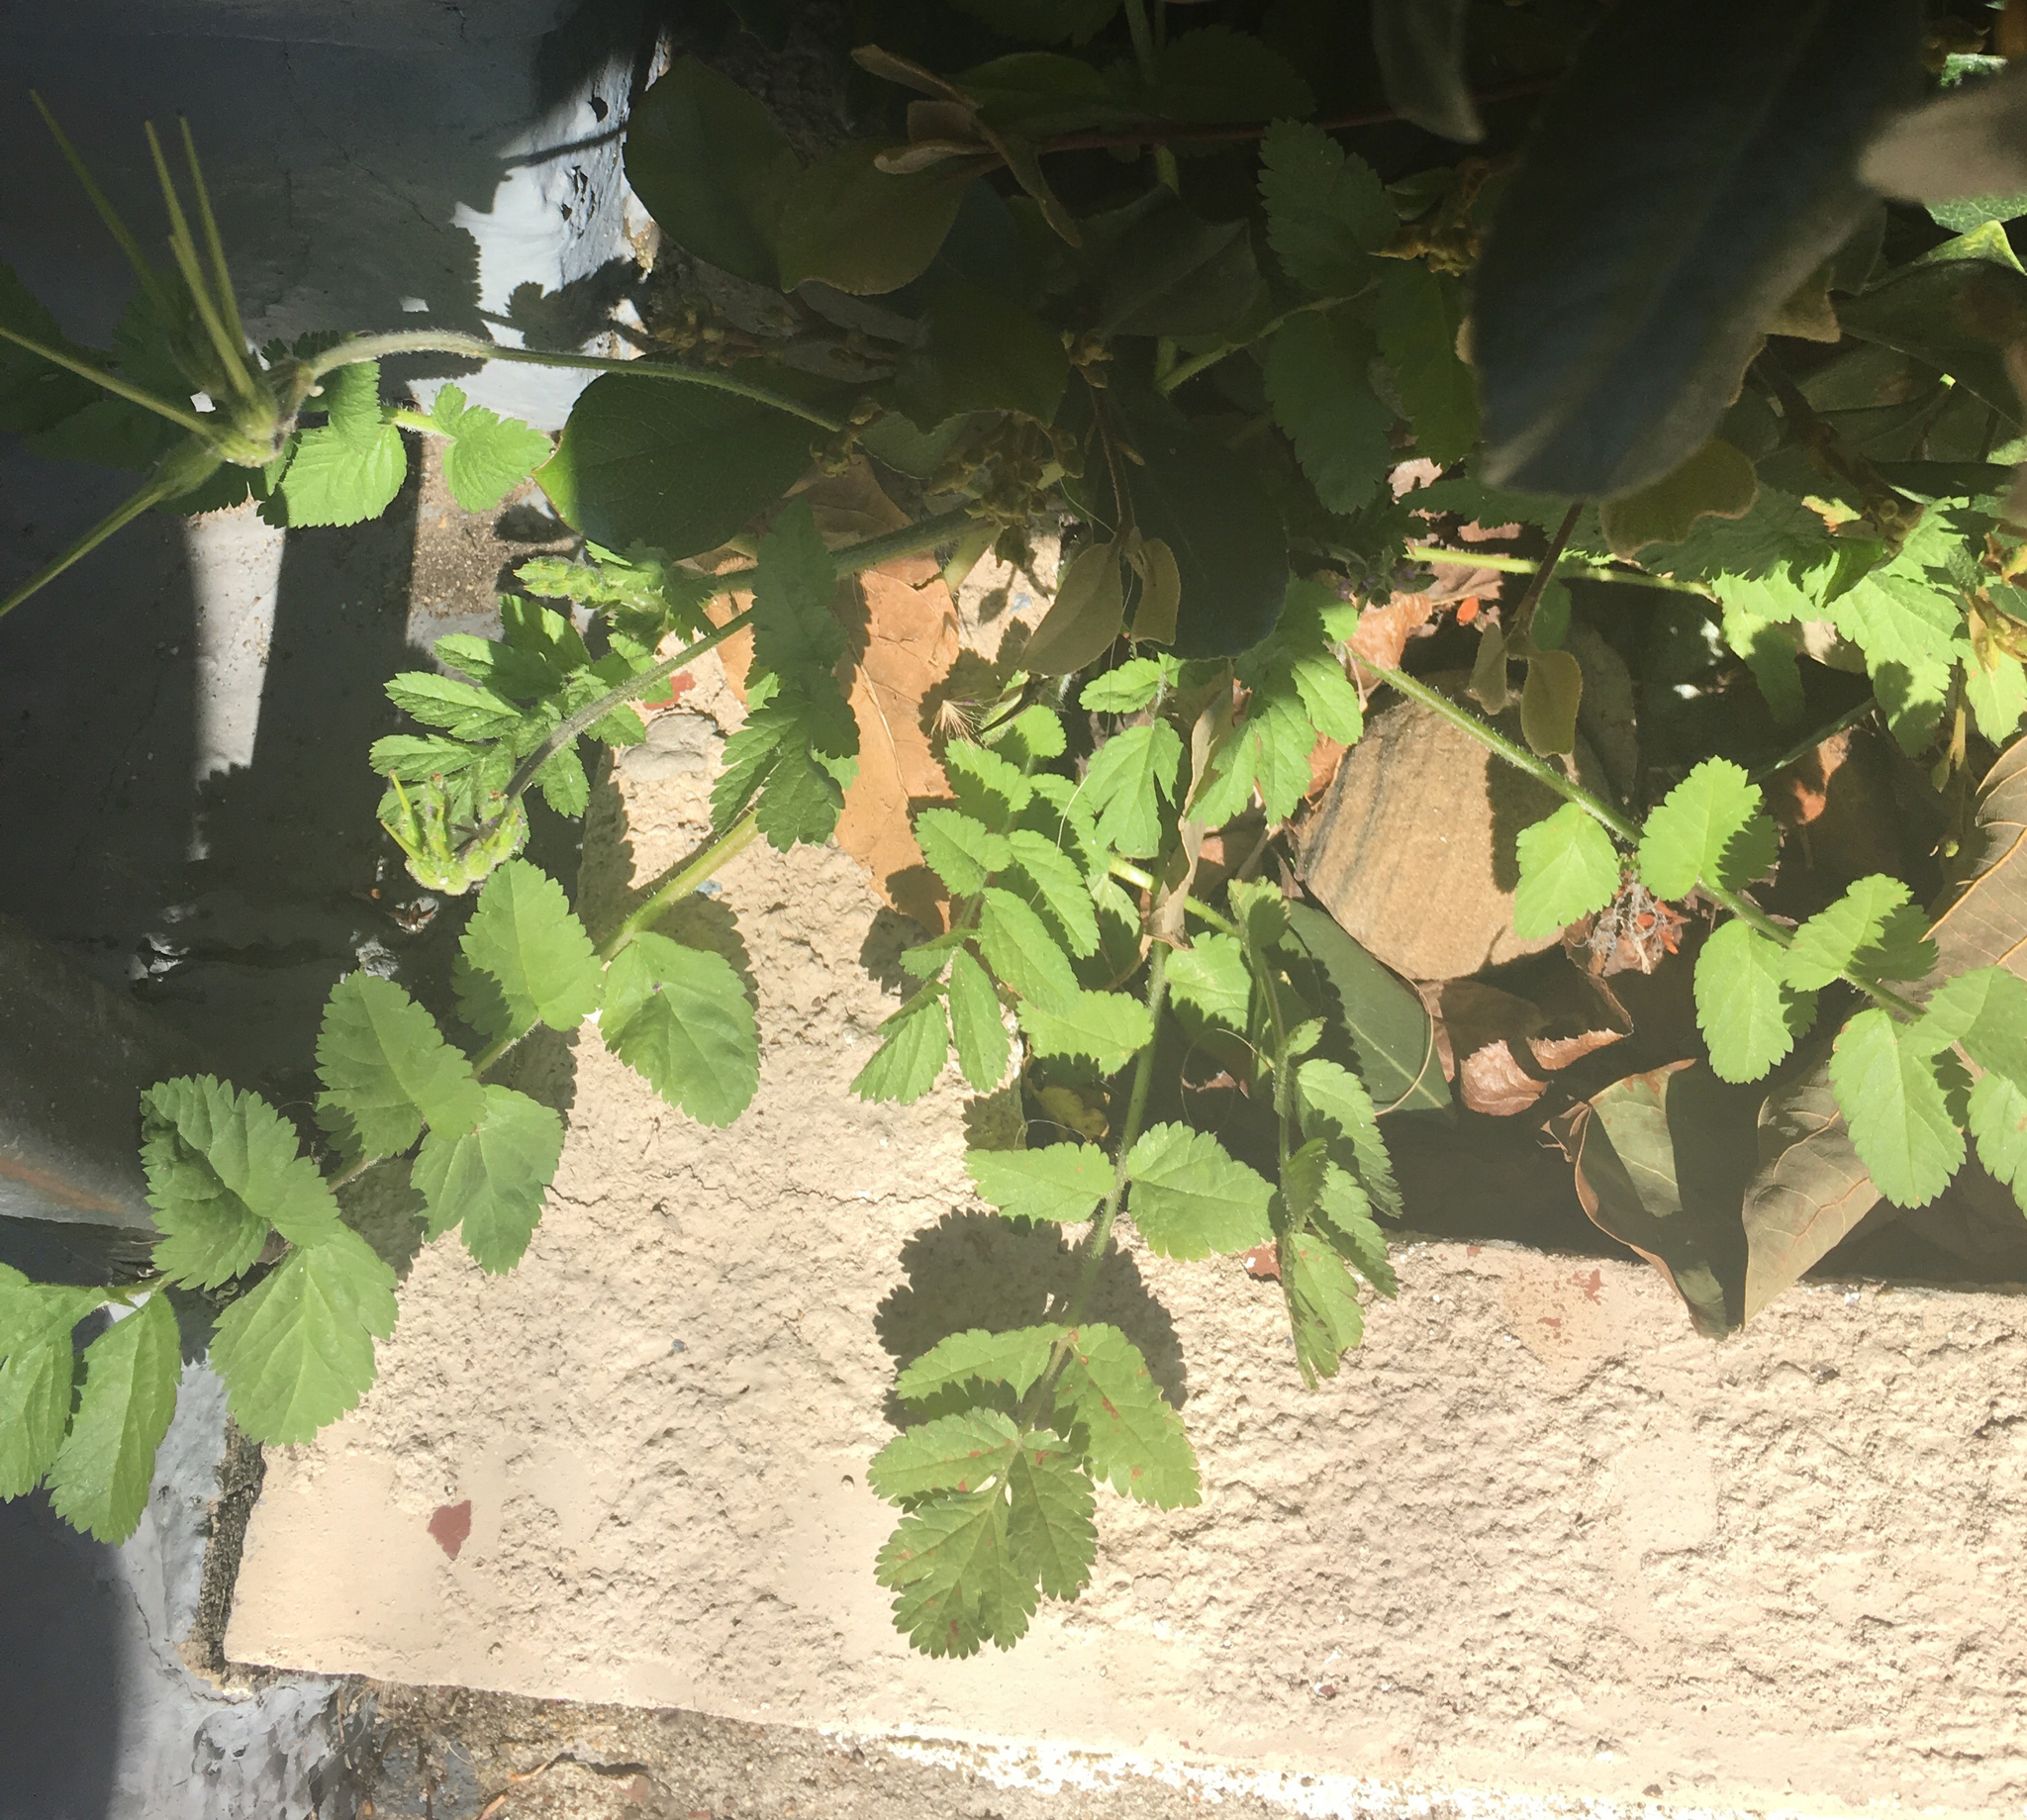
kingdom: Plantae
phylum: Tracheophyta
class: Magnoliopsida
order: Geraniales
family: Geraniaceae
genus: Erodium
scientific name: Erodium moschatum
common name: Musk stork's-bill
